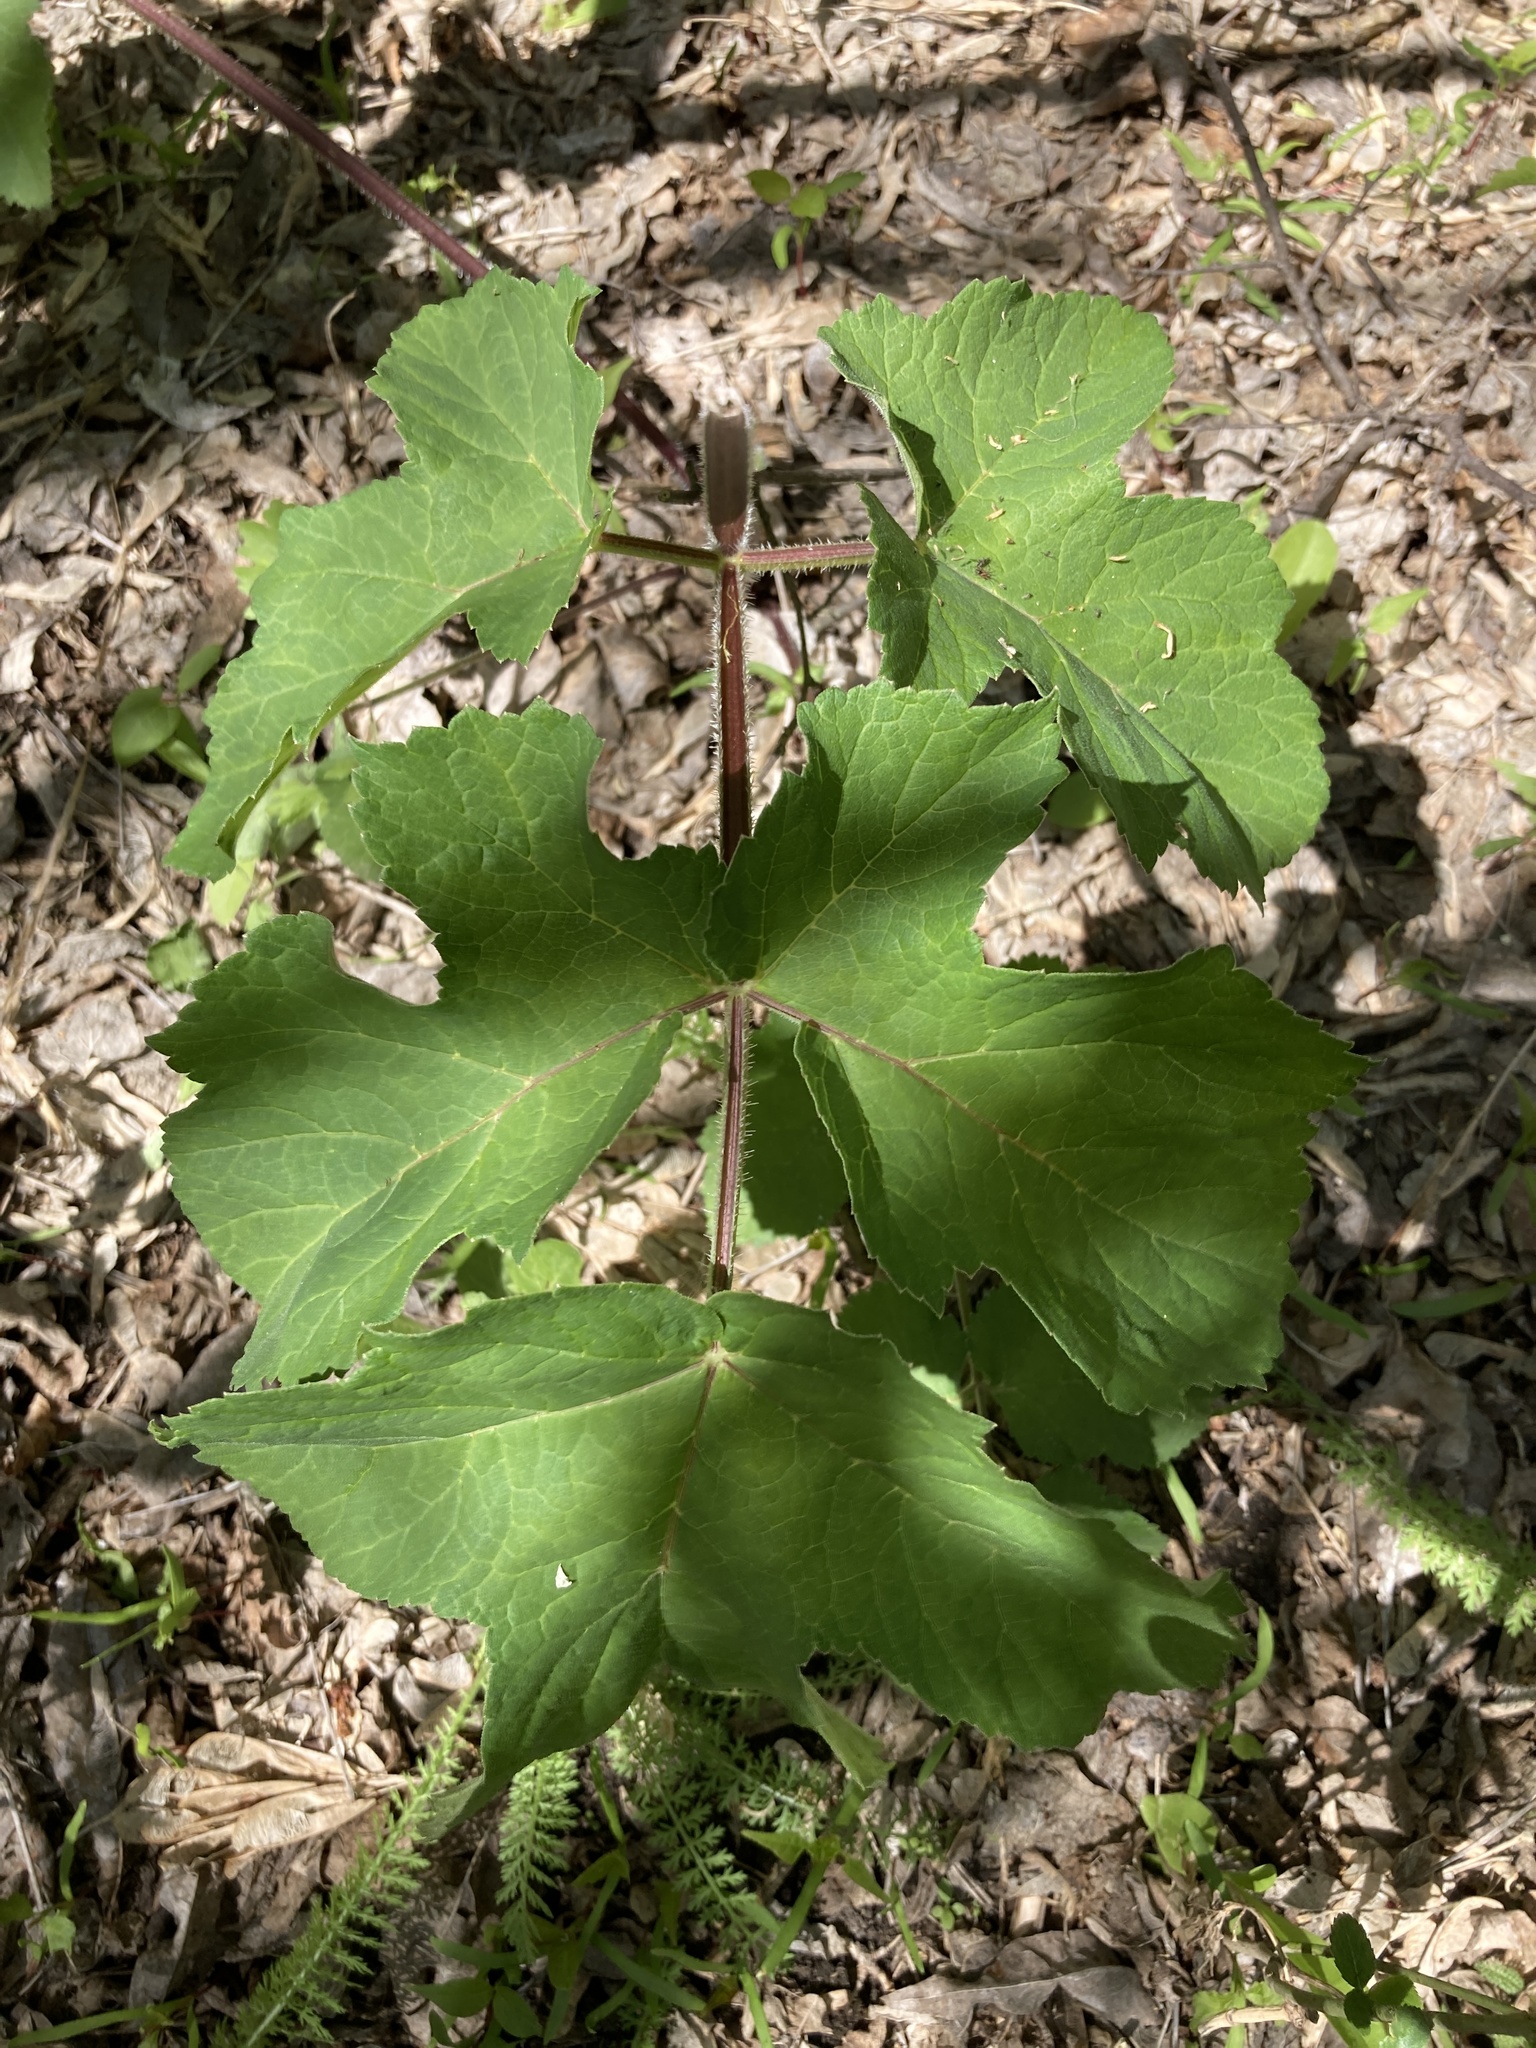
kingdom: Plantae
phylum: Tracheophyta
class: Magnoliopsida
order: Apiales
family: Apiaceae
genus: Heracleum
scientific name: Heracleum sphondylium
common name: Hogweed
